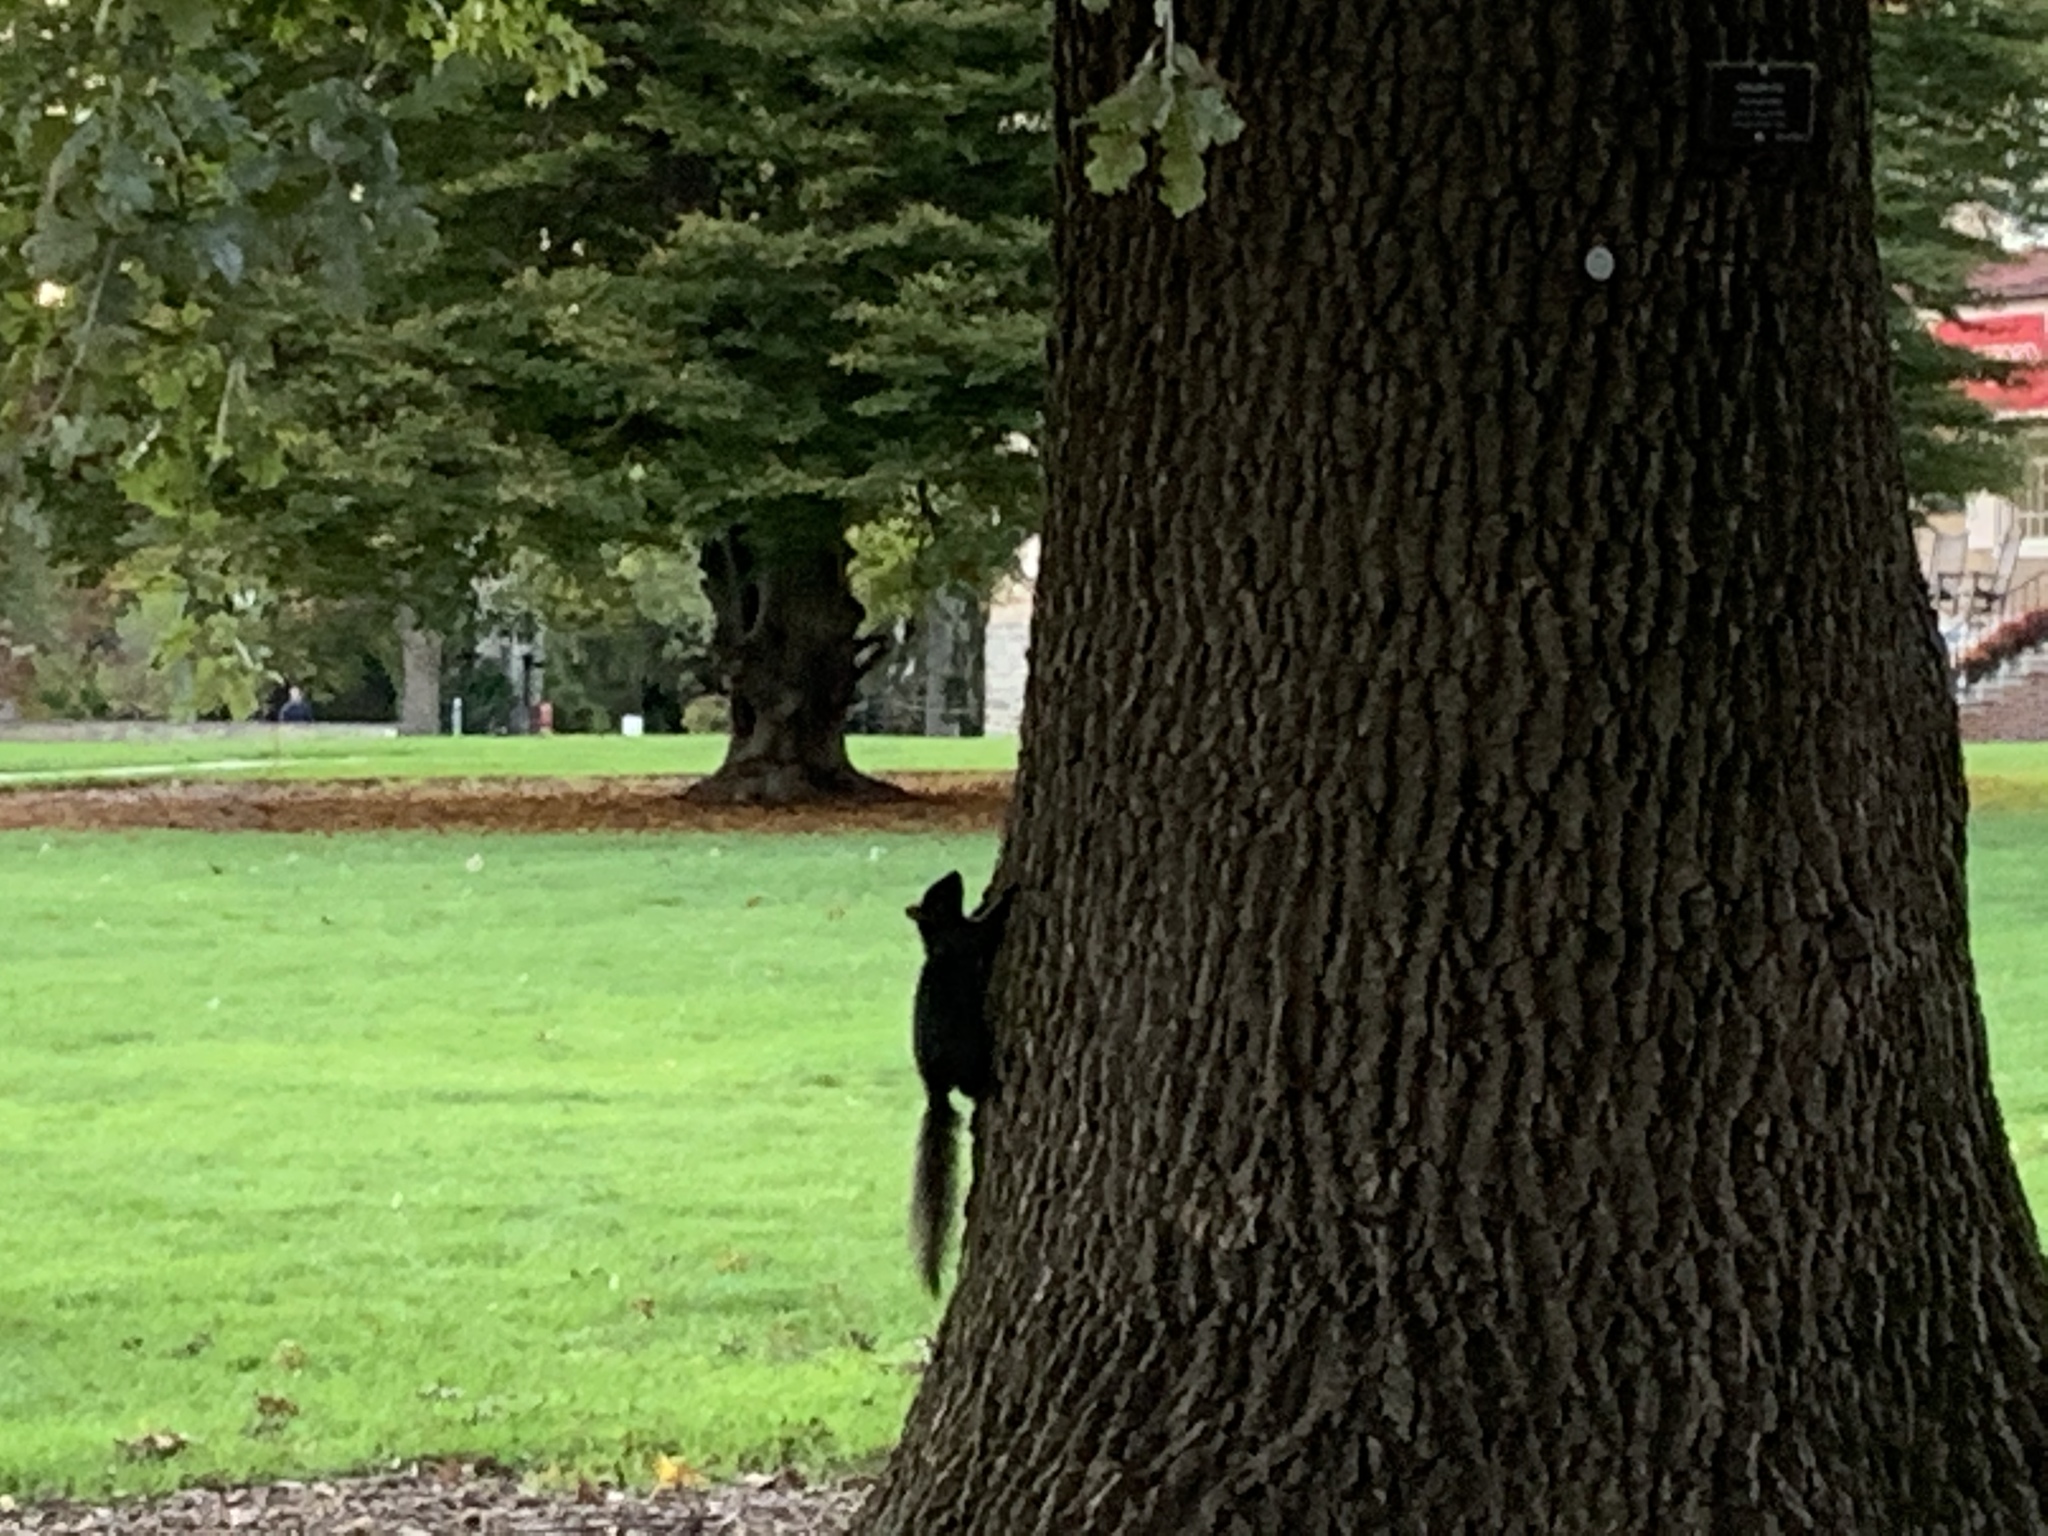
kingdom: Animalia
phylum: Chordata
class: Mammalia
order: Rodentia
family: Sciuridae
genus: Sciurus
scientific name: Sciurus carolinensis
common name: Eastern gray squirrel
